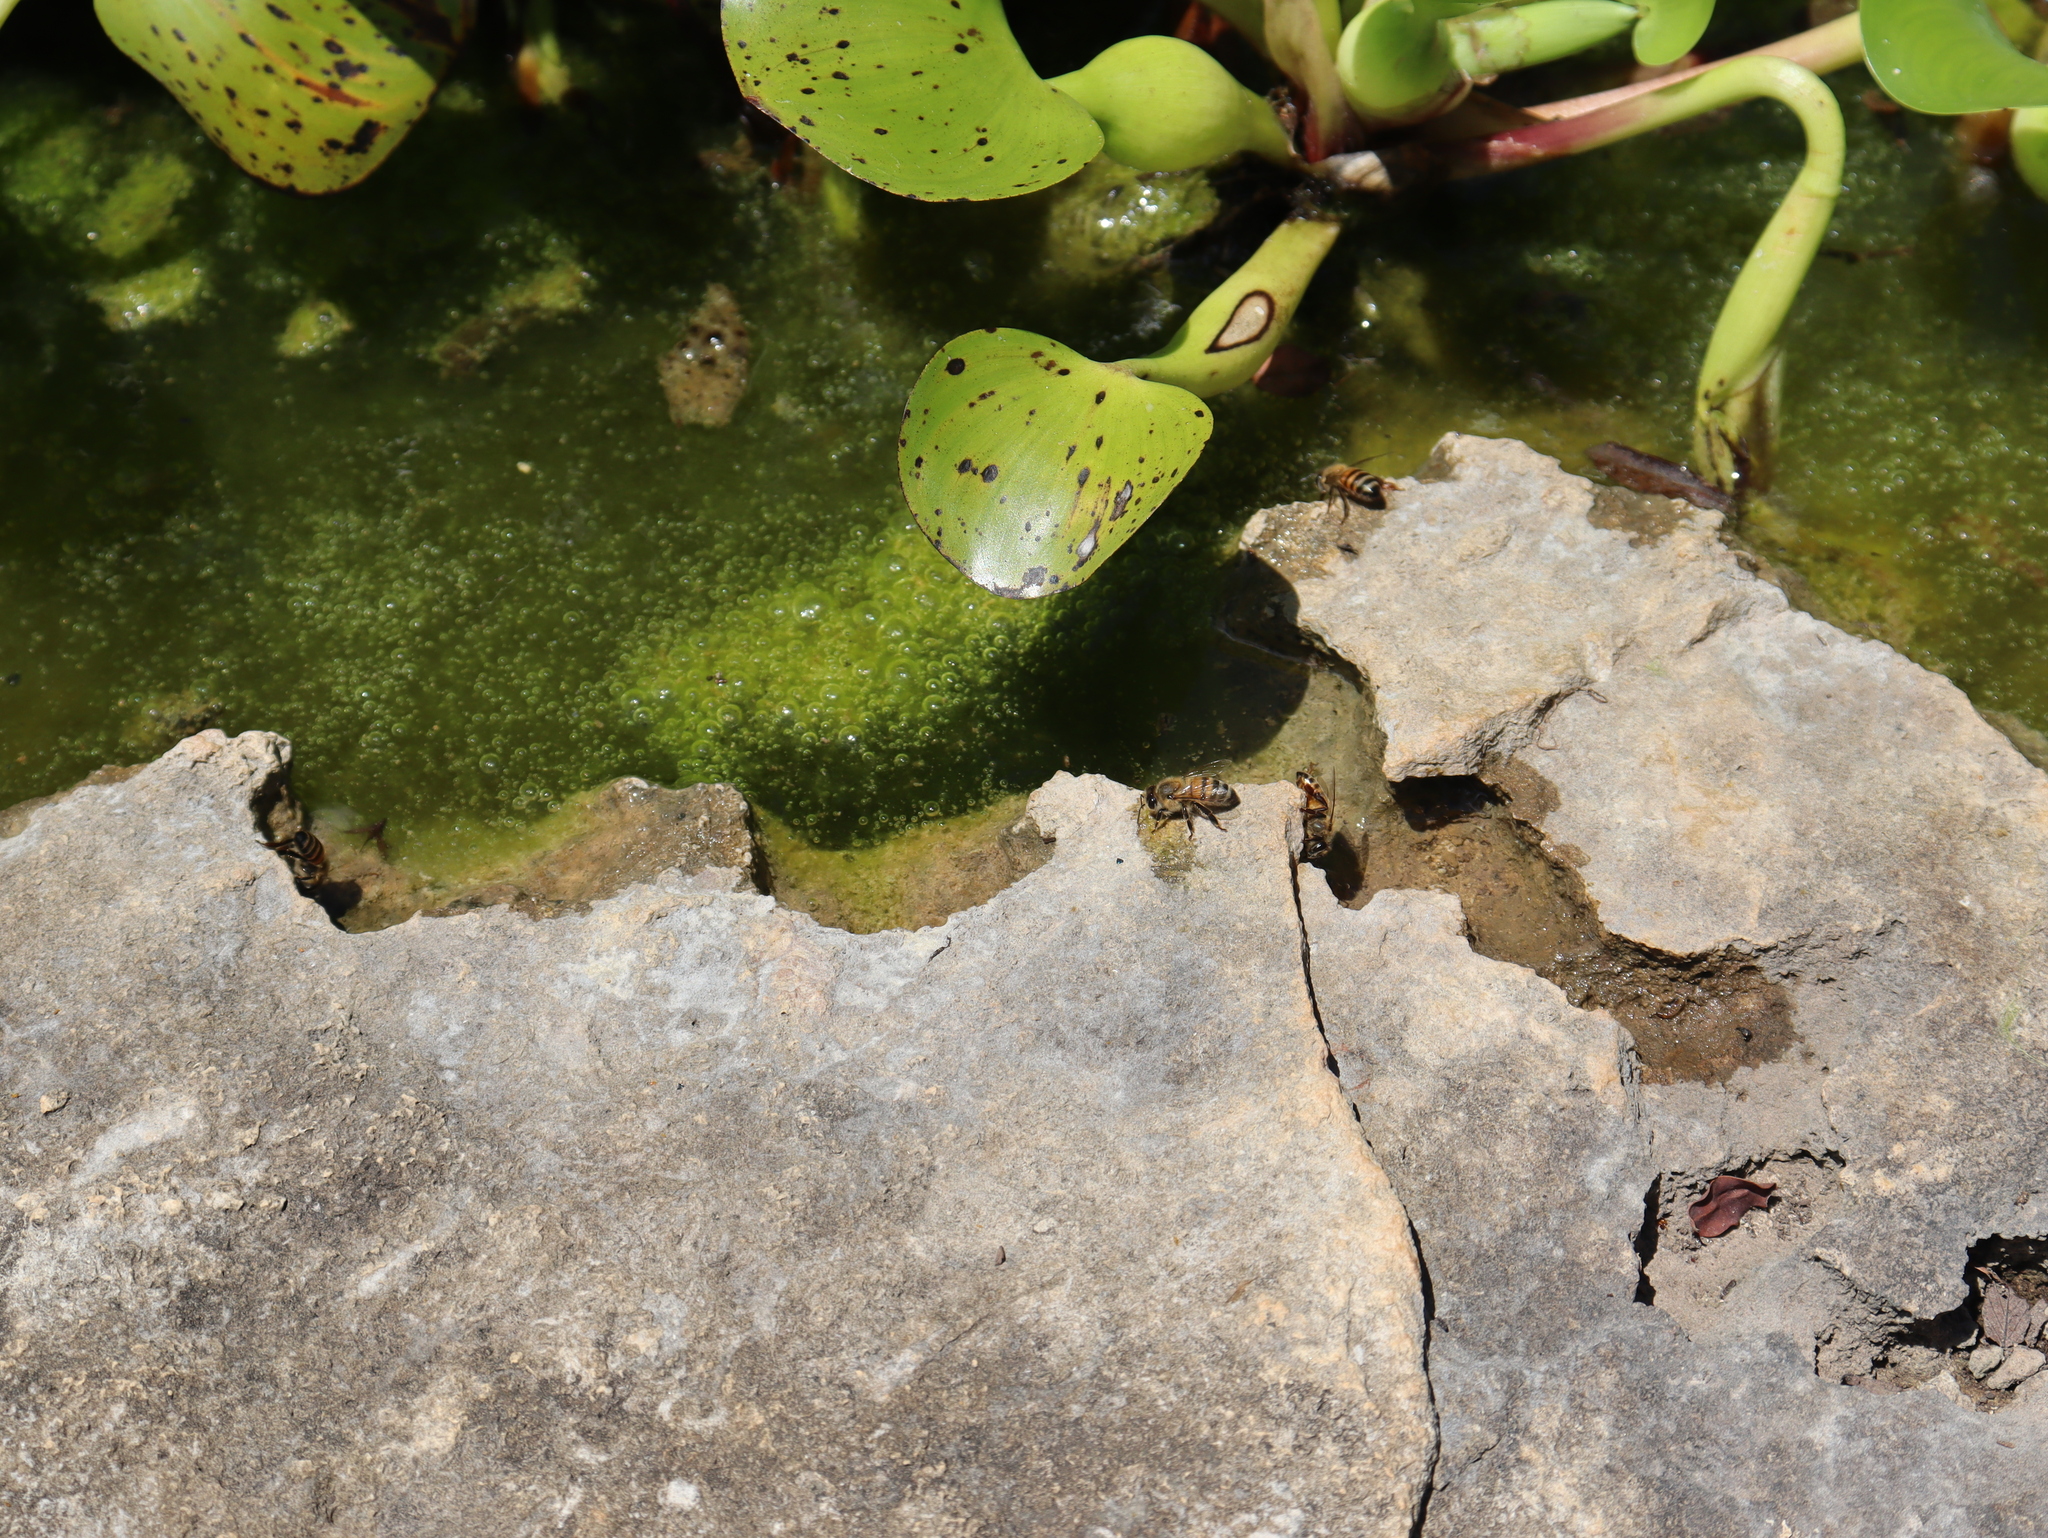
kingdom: Animalia
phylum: Arthropoda
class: Insecta
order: Hymenoptera
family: Apidae
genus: Apis
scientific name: Apis mellifera
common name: Honey bee
